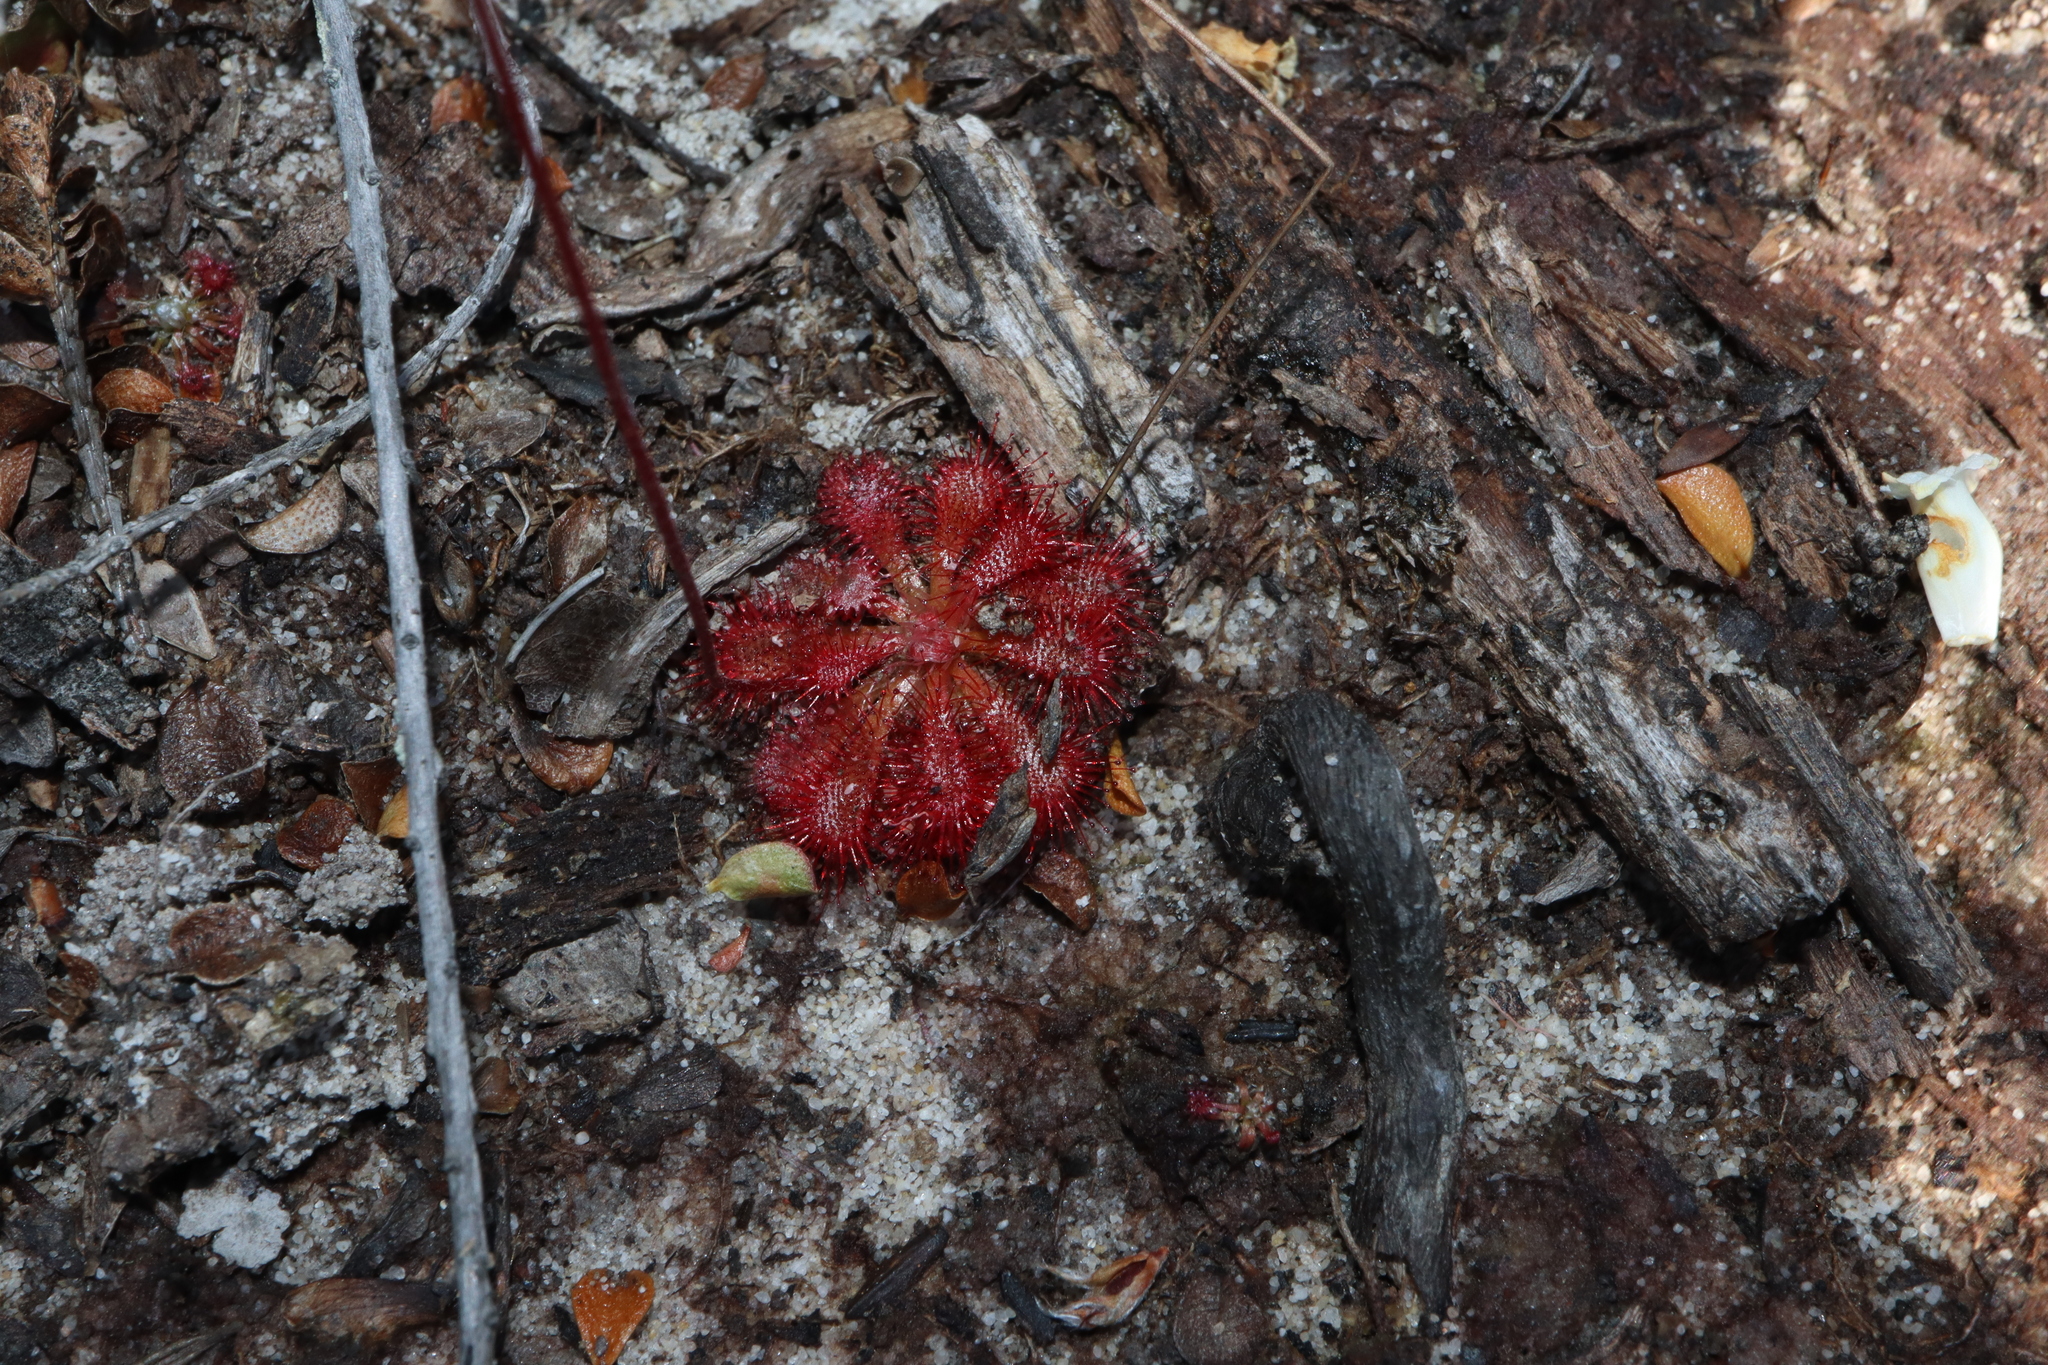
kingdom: Plantae
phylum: Tracheophyta
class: Magnoliopsida
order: Caryophyllales
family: Droseraceae
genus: Drosera
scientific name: Drosera spatulata
